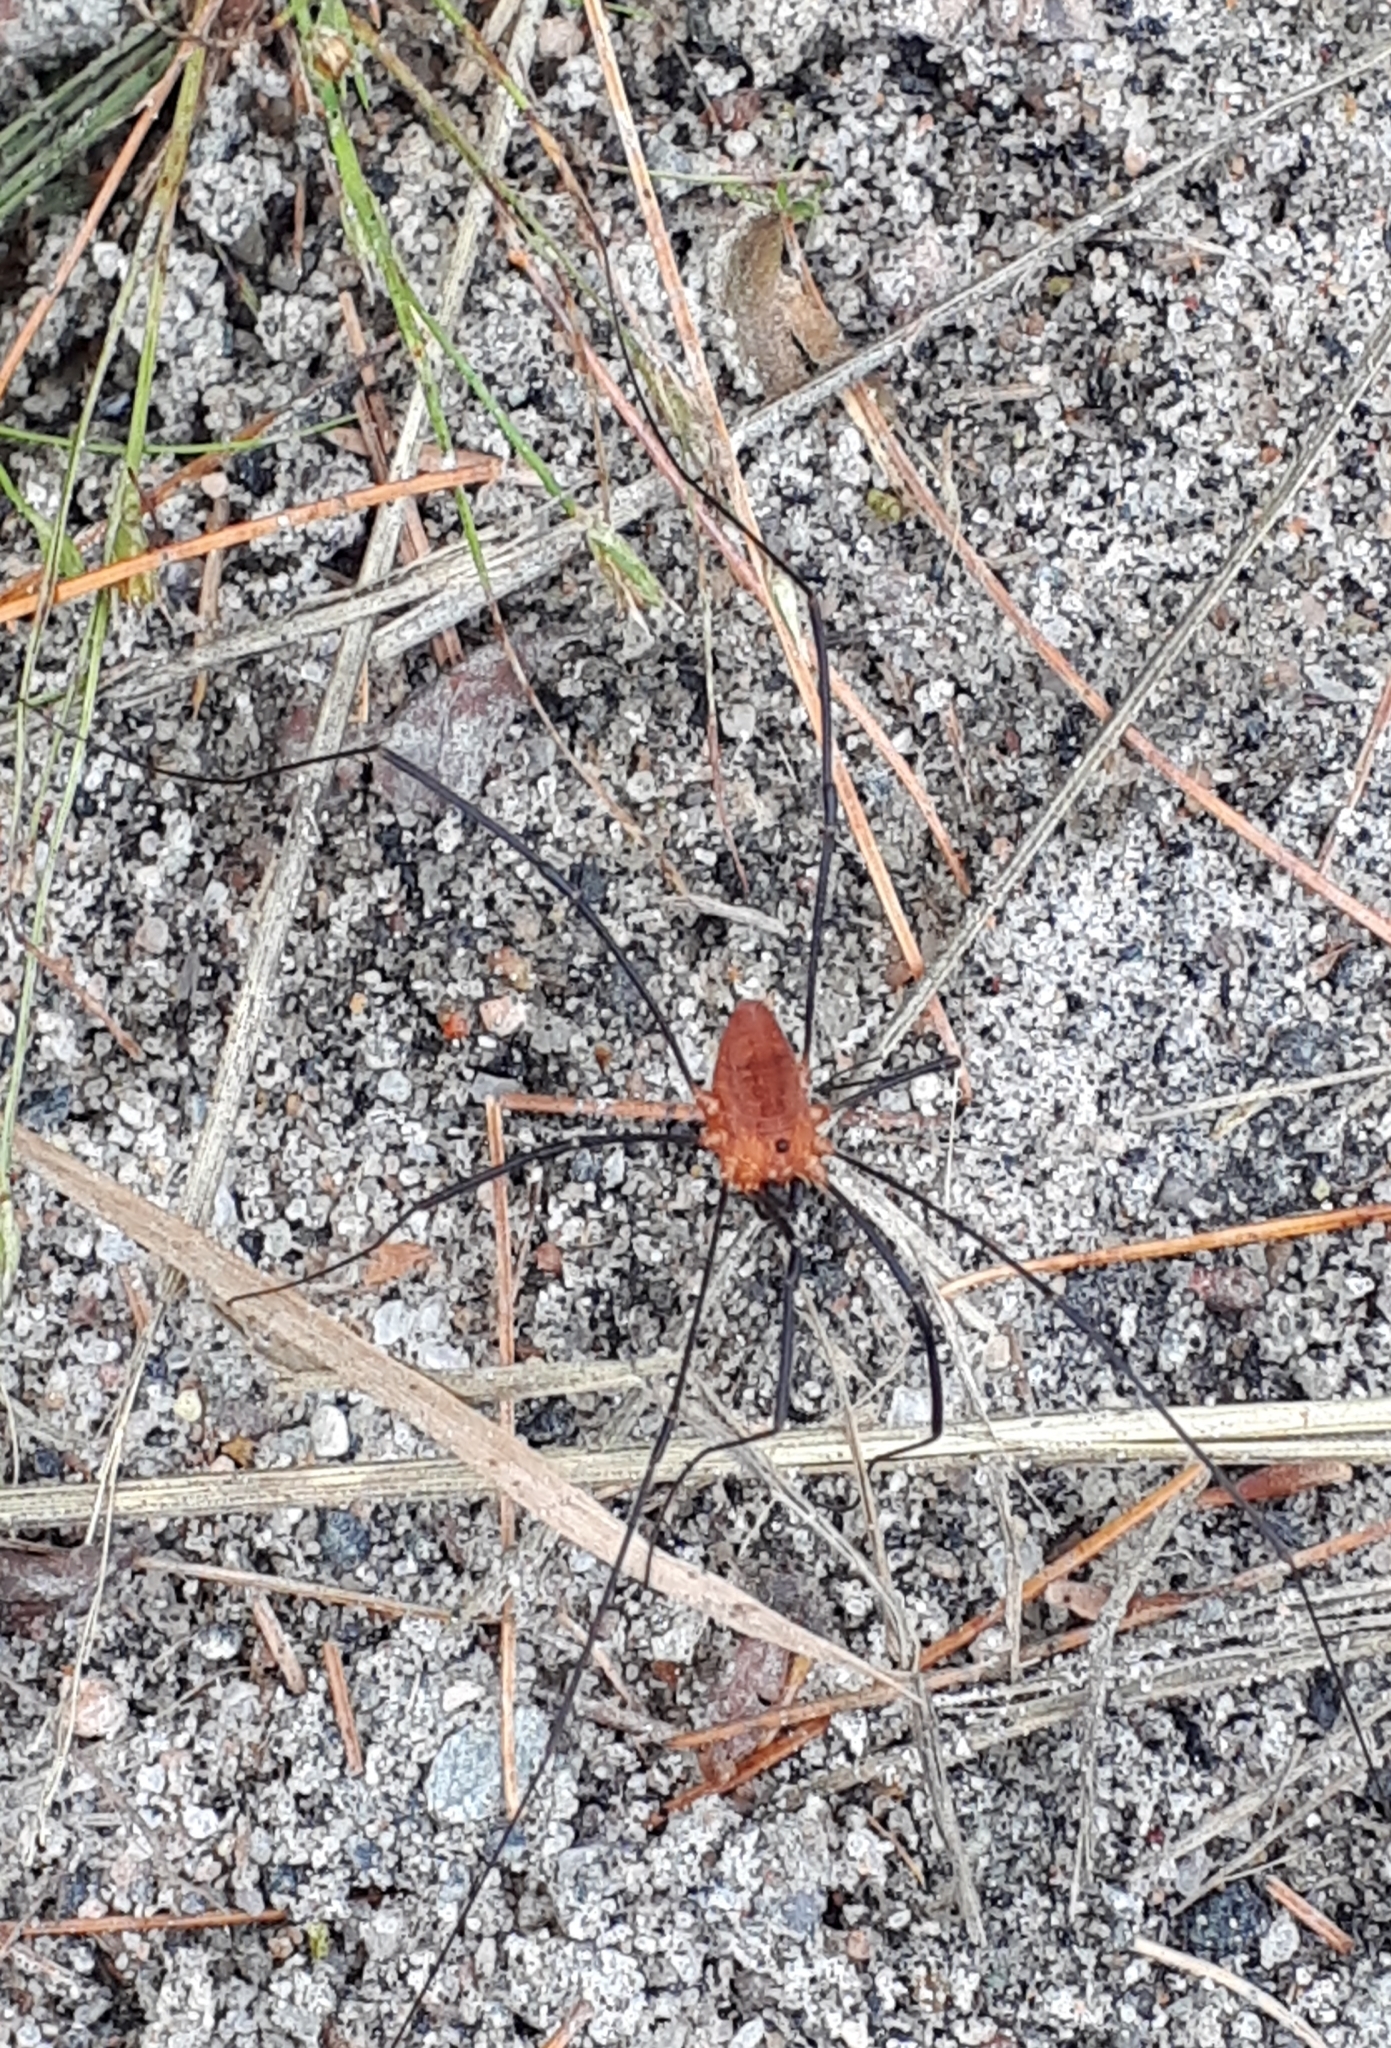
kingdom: Animalia
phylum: Arthropoda
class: Arachnida
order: Opiliones
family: Sclerosomatidae
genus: Leiobunum
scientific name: Leiobunum calcar
